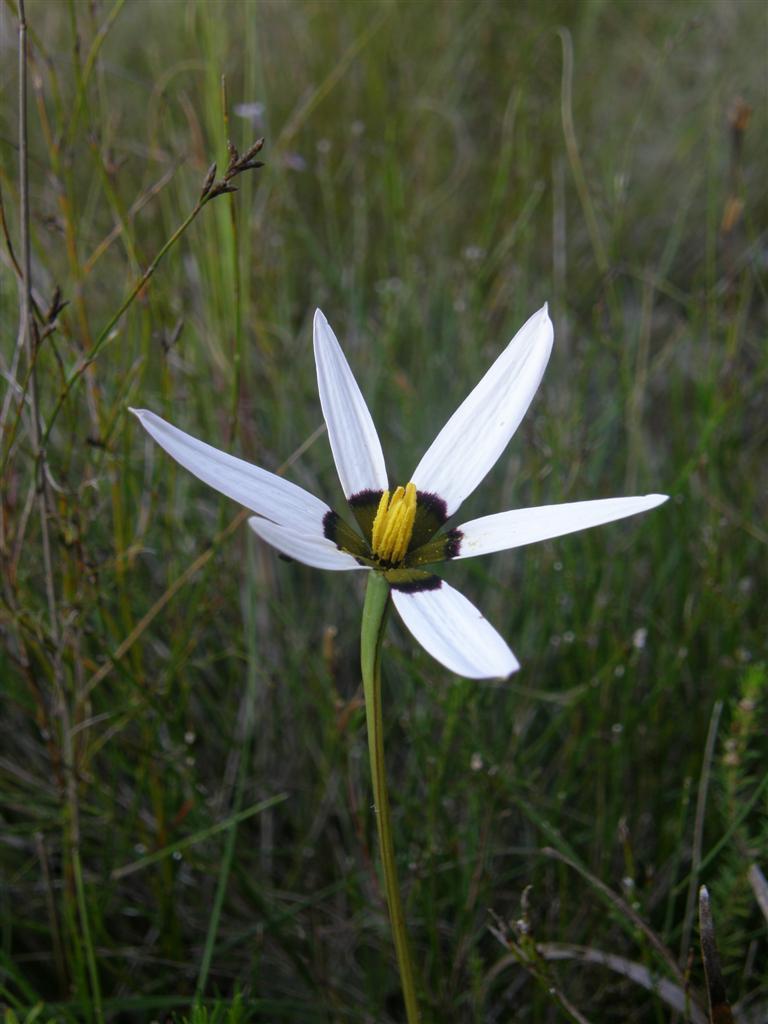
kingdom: Plantae
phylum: Tracheophyta
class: Liliopsida
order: Asparagales
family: Hypoxidaceae
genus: Pauridia
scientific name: Pauridia capensis
